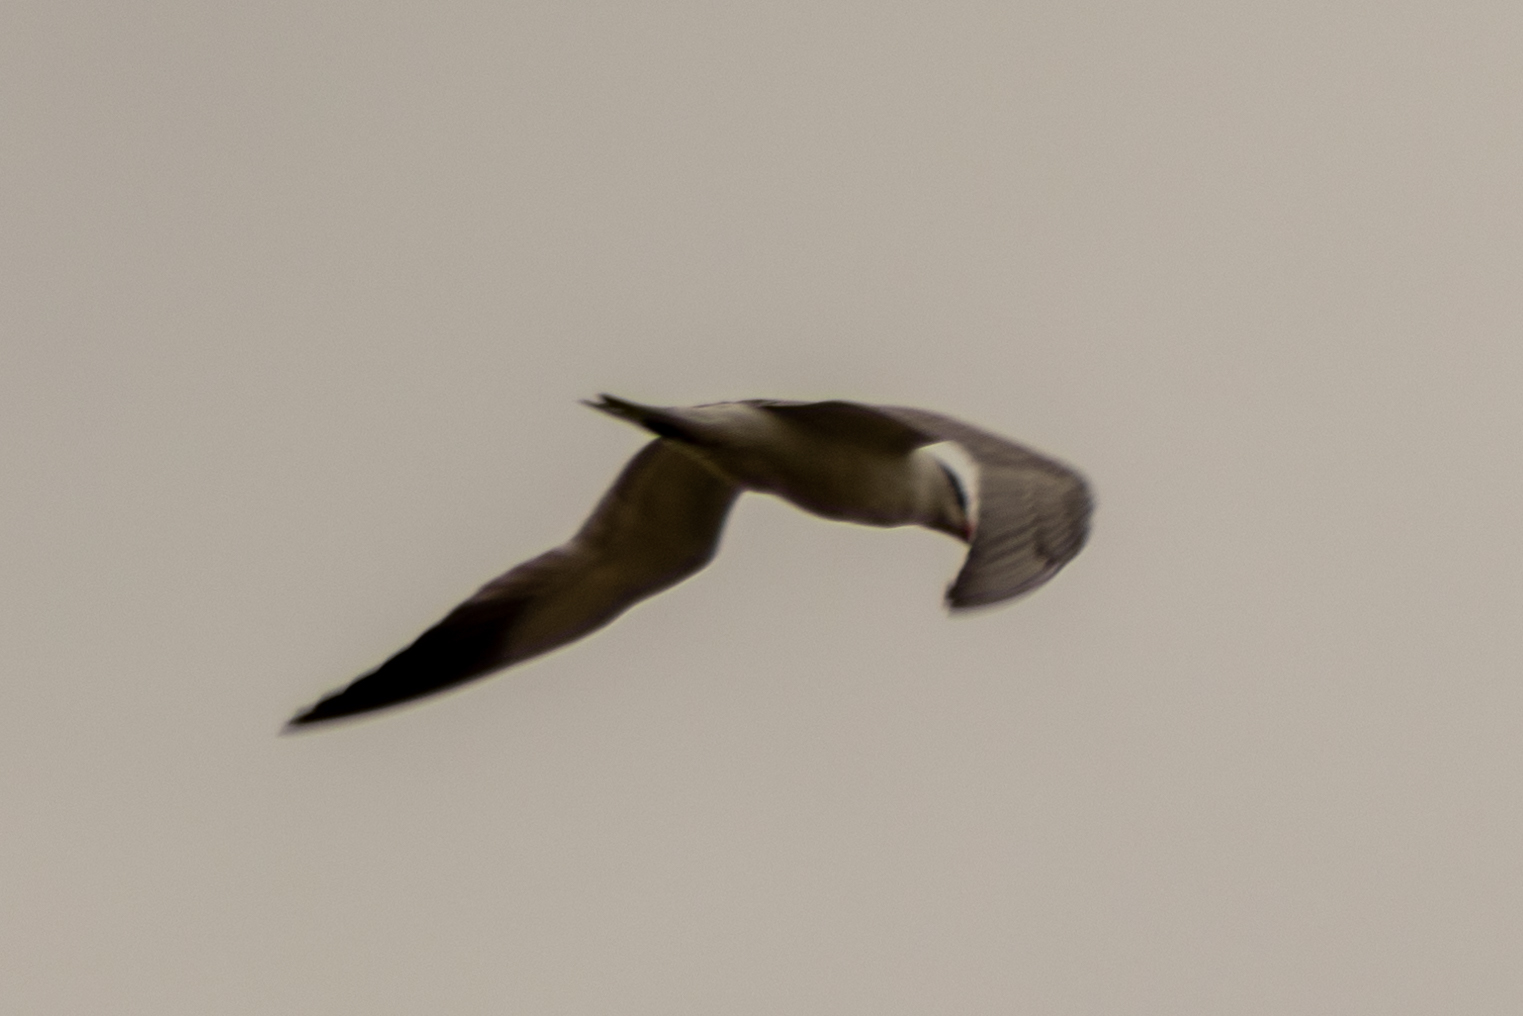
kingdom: Animalia
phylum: Chordata
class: Aves
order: Charadriiformes
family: Laridae
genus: Hydroprogne
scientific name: Hydroprogne caspia
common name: Caspian tern
